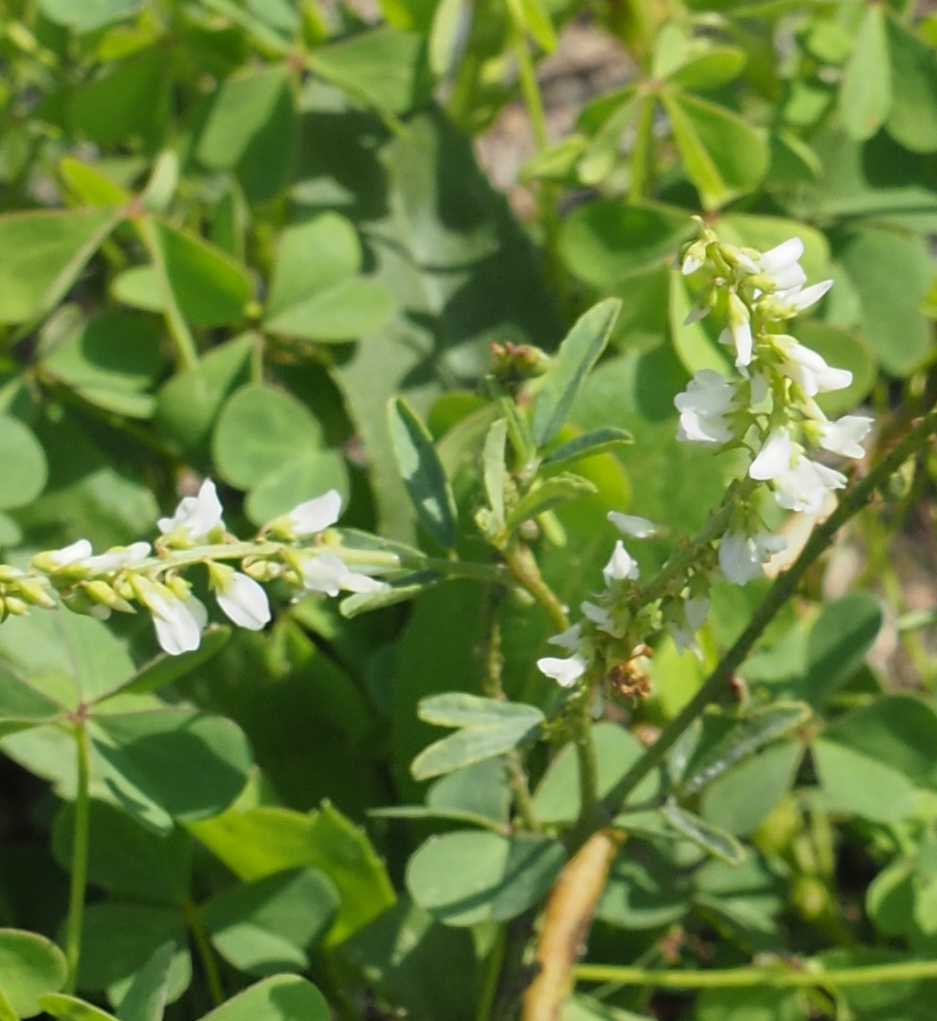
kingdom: Plantae
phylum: Tracheophyta
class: Magnoliopsida
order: Fabales
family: Fabaceae
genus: Melilotus
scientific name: Melilotus albus
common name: White melilot
